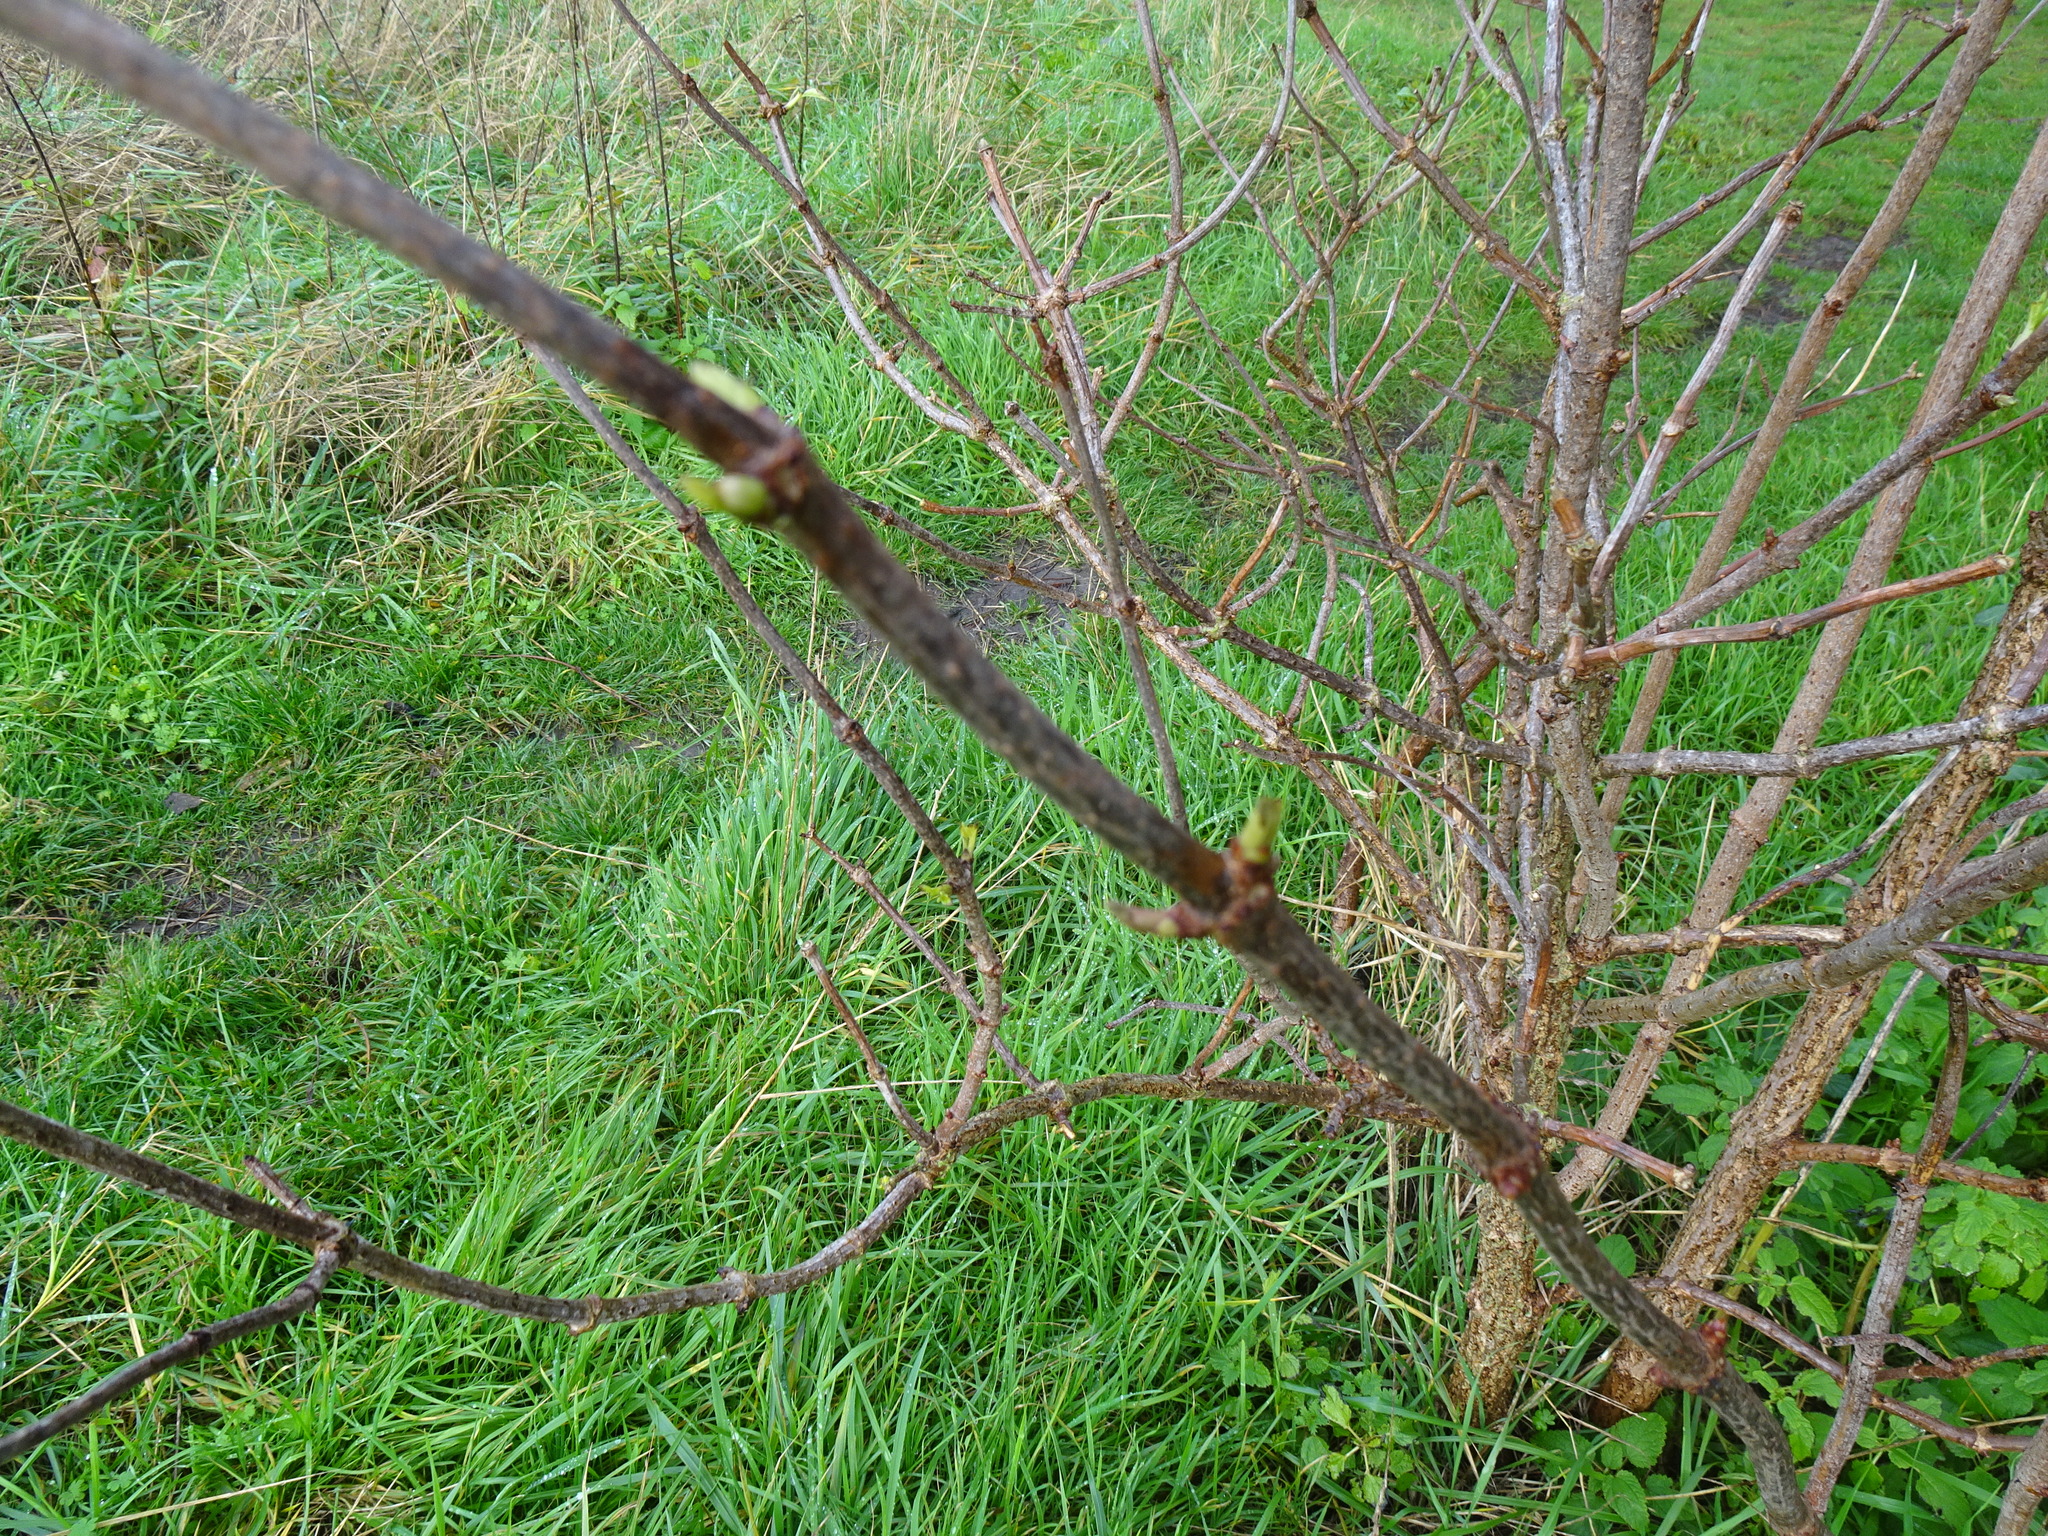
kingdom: Plantae
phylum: Tracheophyta
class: Magnoliopsida
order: Dipsacales
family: Viburnaceae
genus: Sambucus
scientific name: Sambucus nigra
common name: Elder
